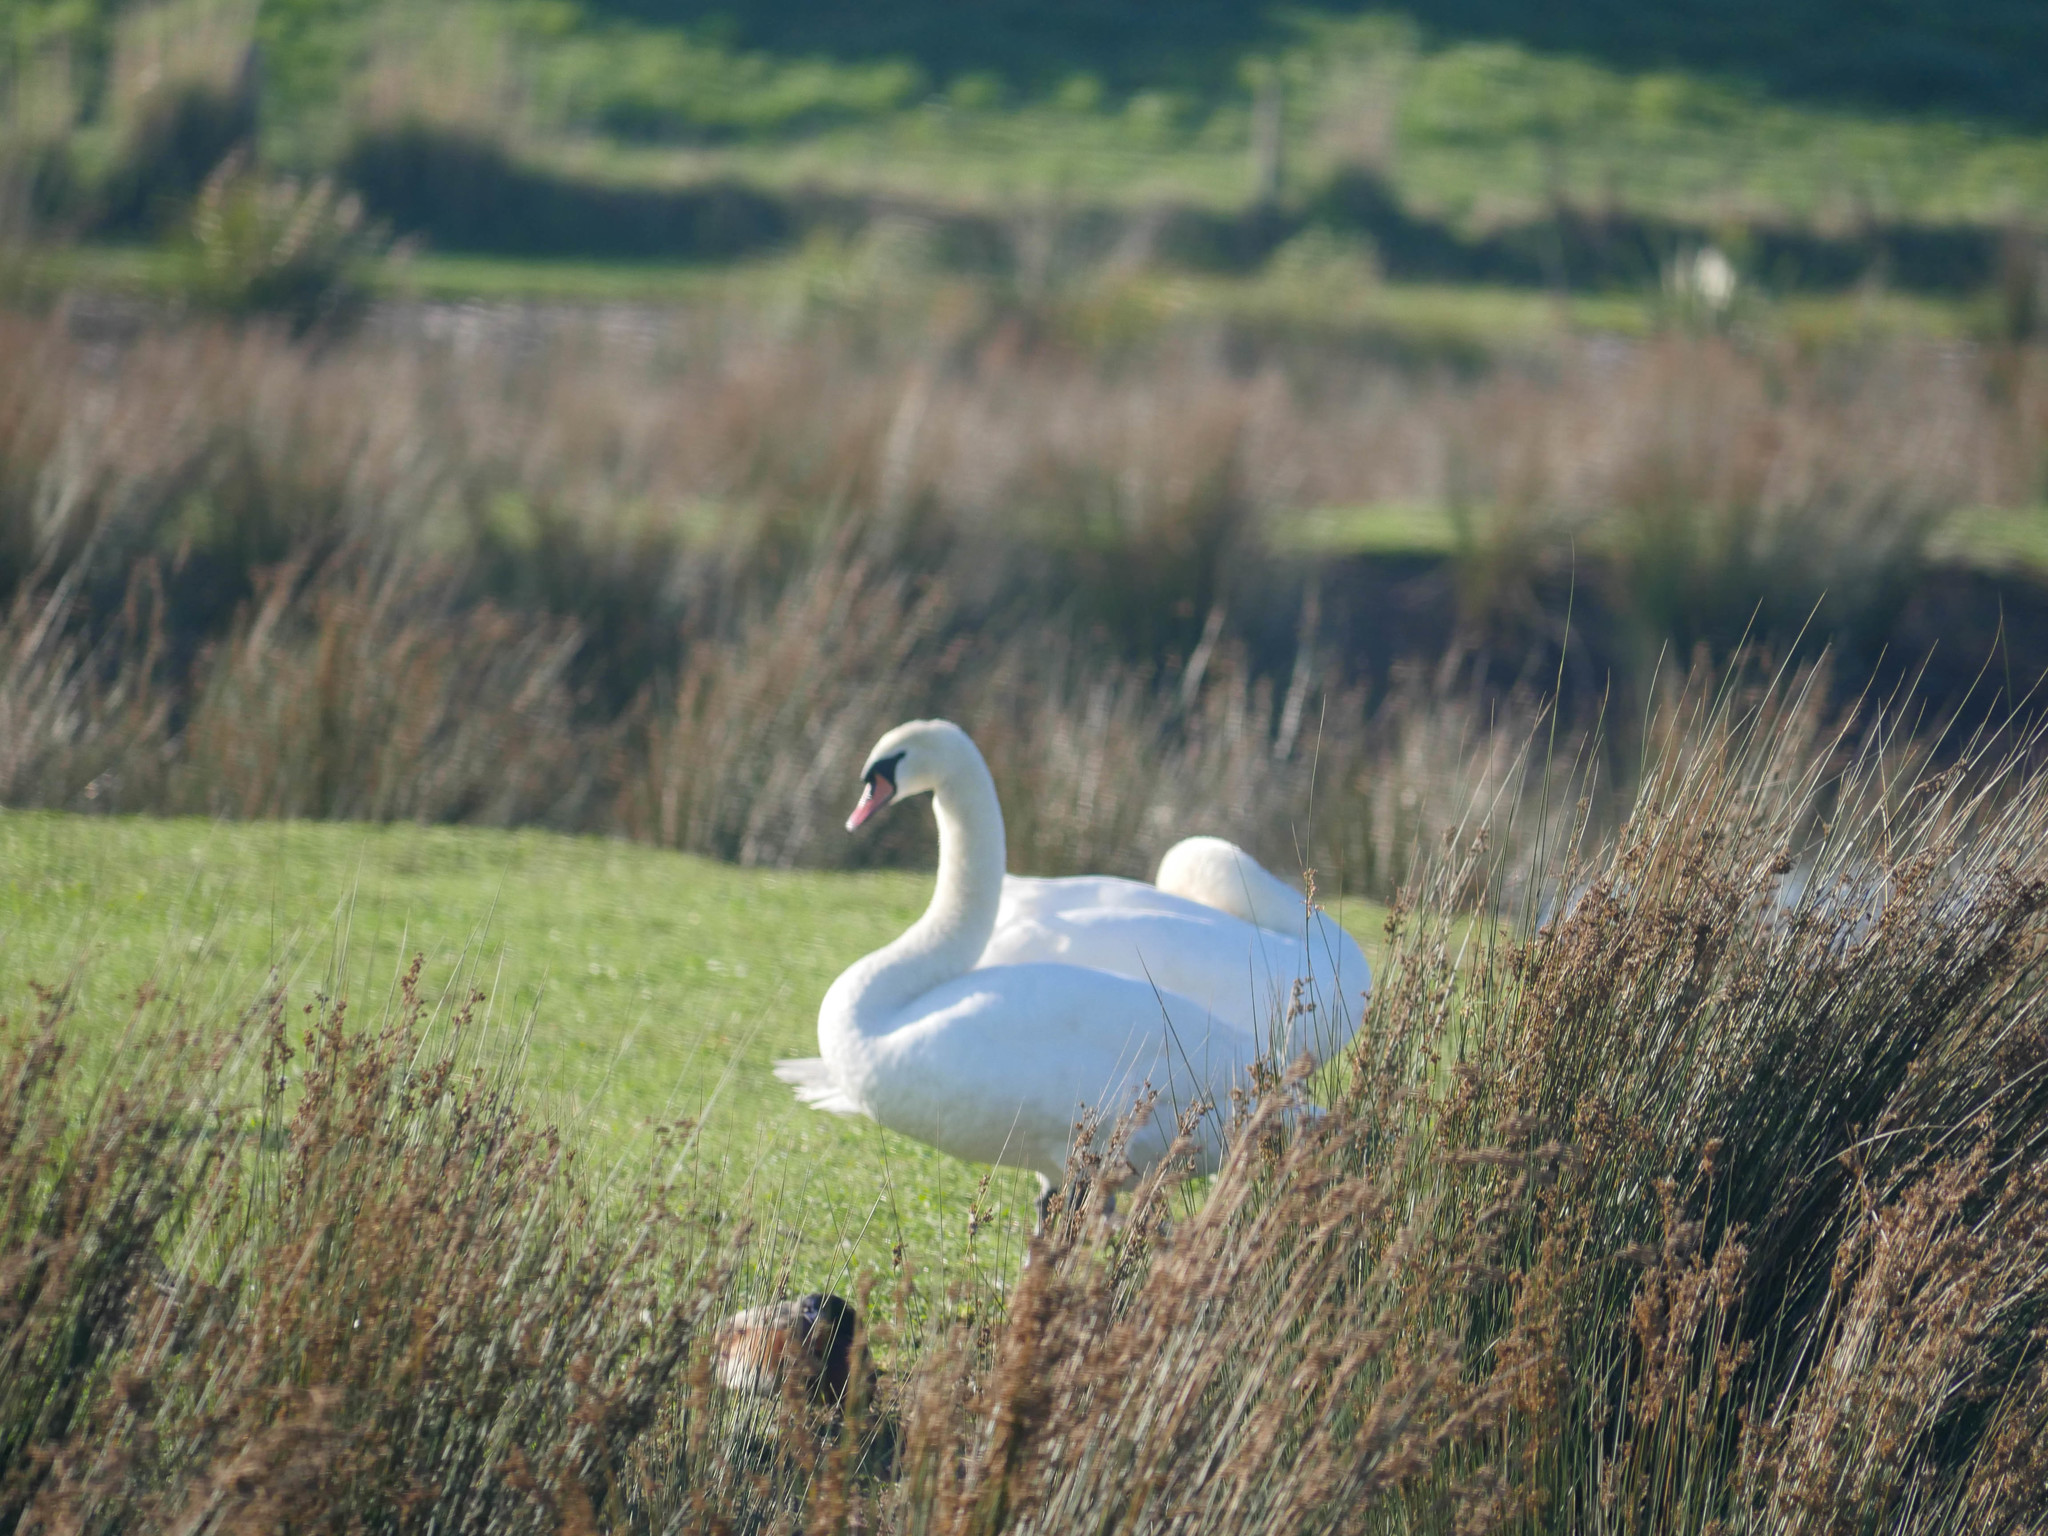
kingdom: Animalia
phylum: Chordata
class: Aves
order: Anseriformes
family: Anatidae
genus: Cygnus
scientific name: Cygnus olor
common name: Mute swan
